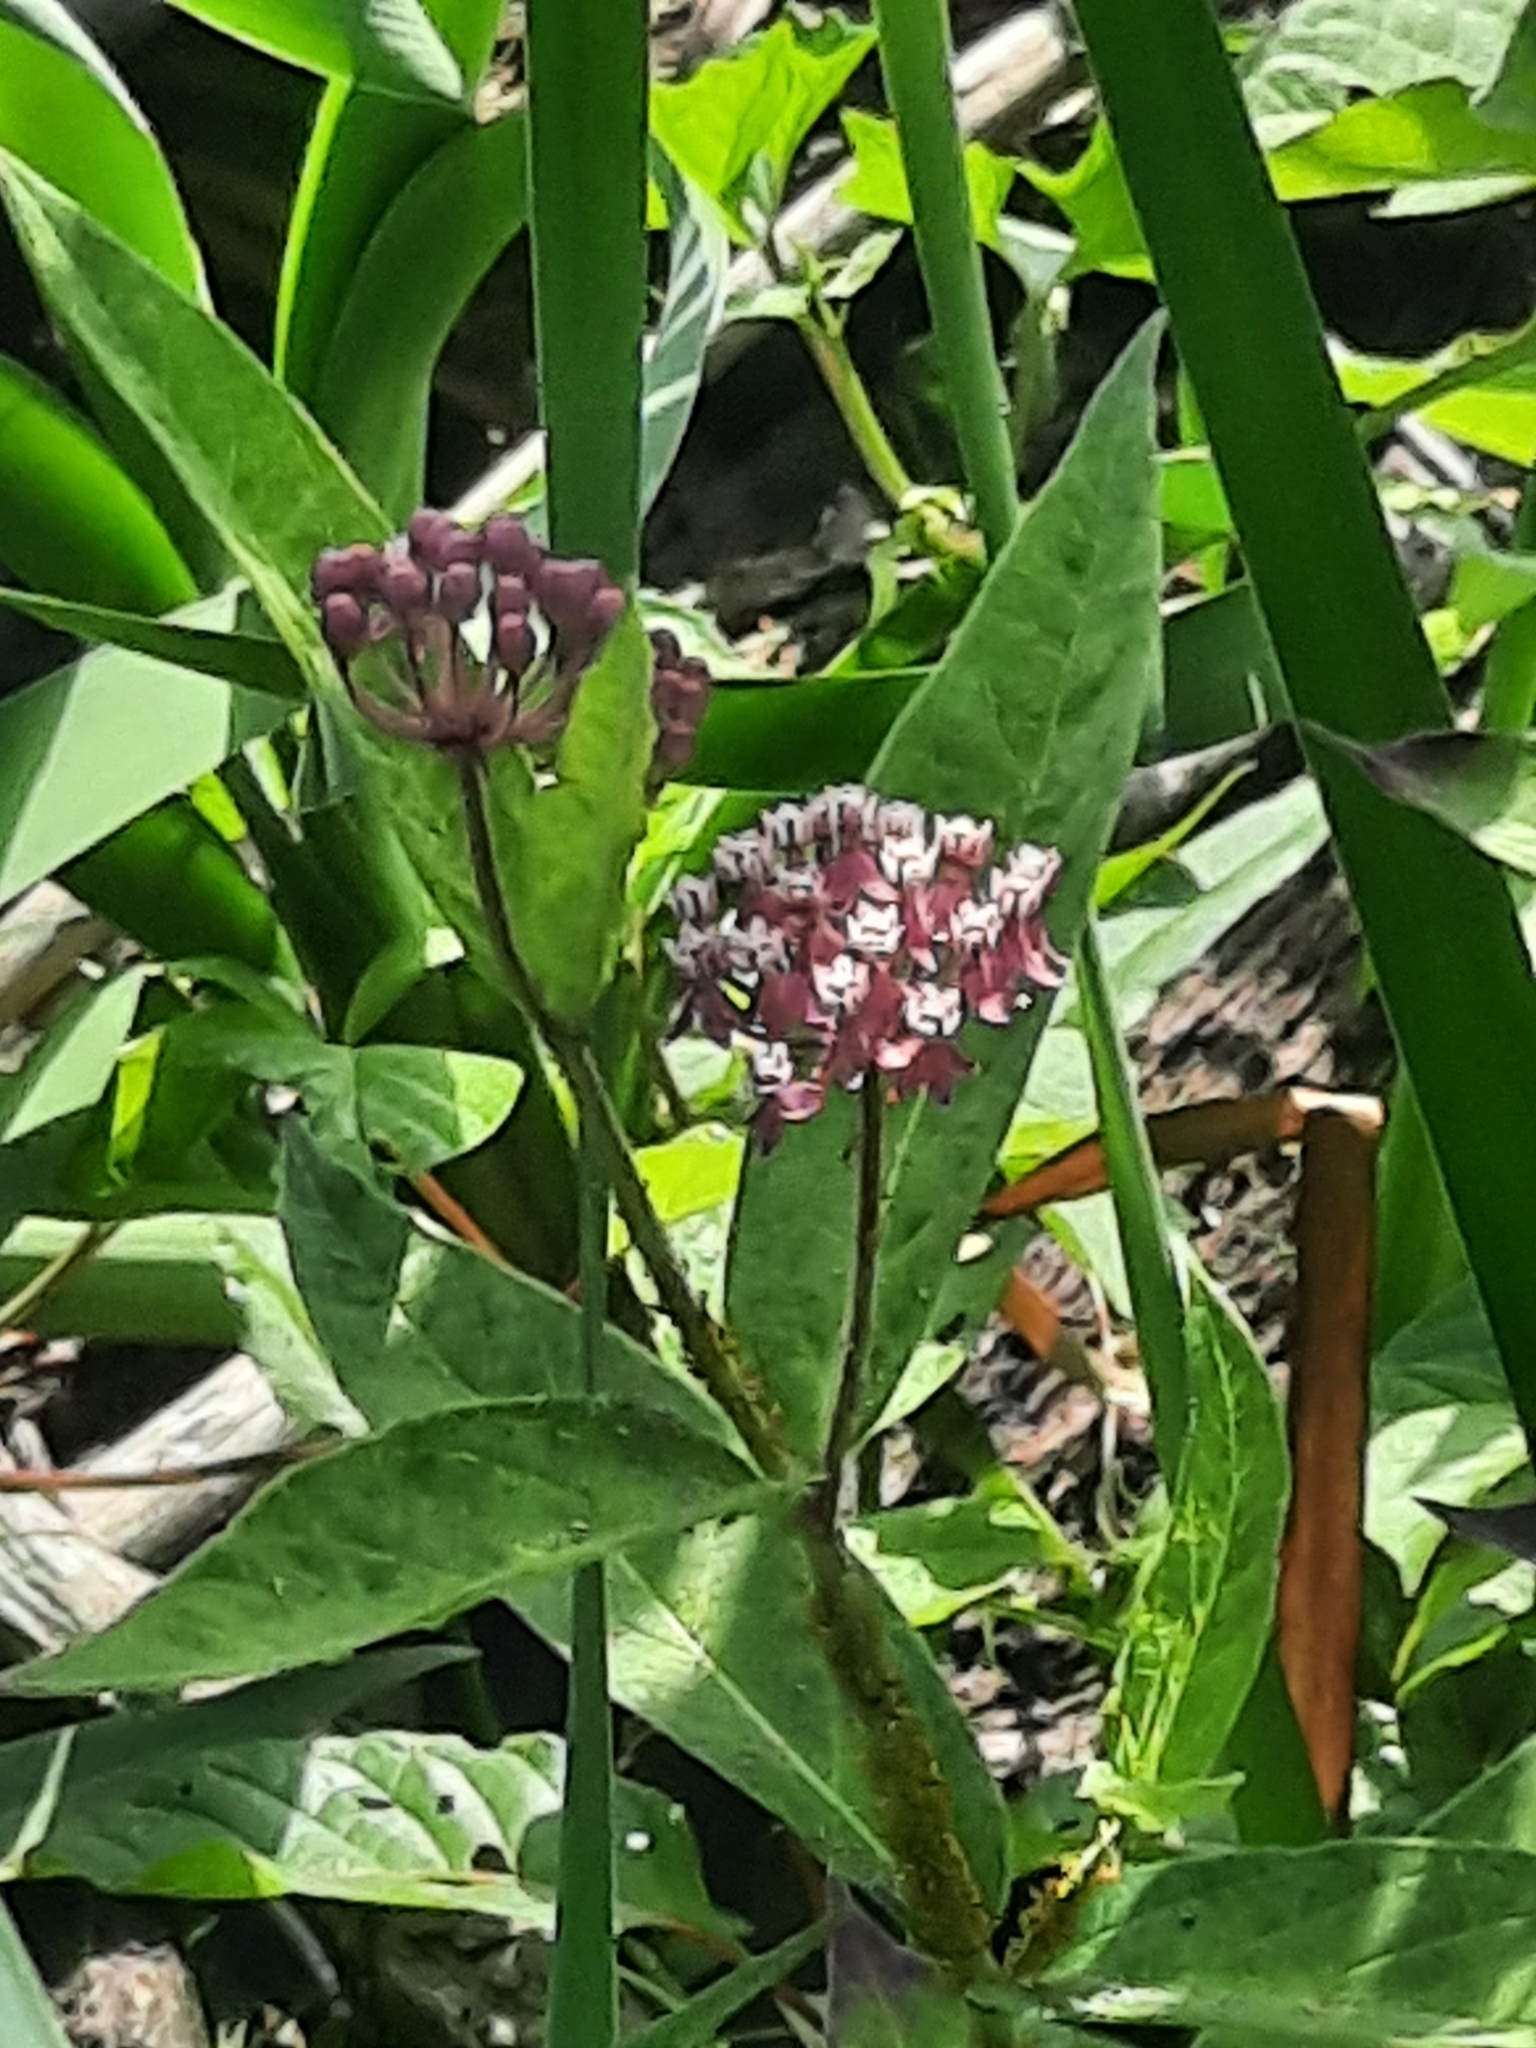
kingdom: Plantae
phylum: Tracheophyta
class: Magnoliopsida
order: Gentianales
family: Apocynaceae
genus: Asclepias
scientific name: Asclepias incarnata
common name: Swamp milkweed
